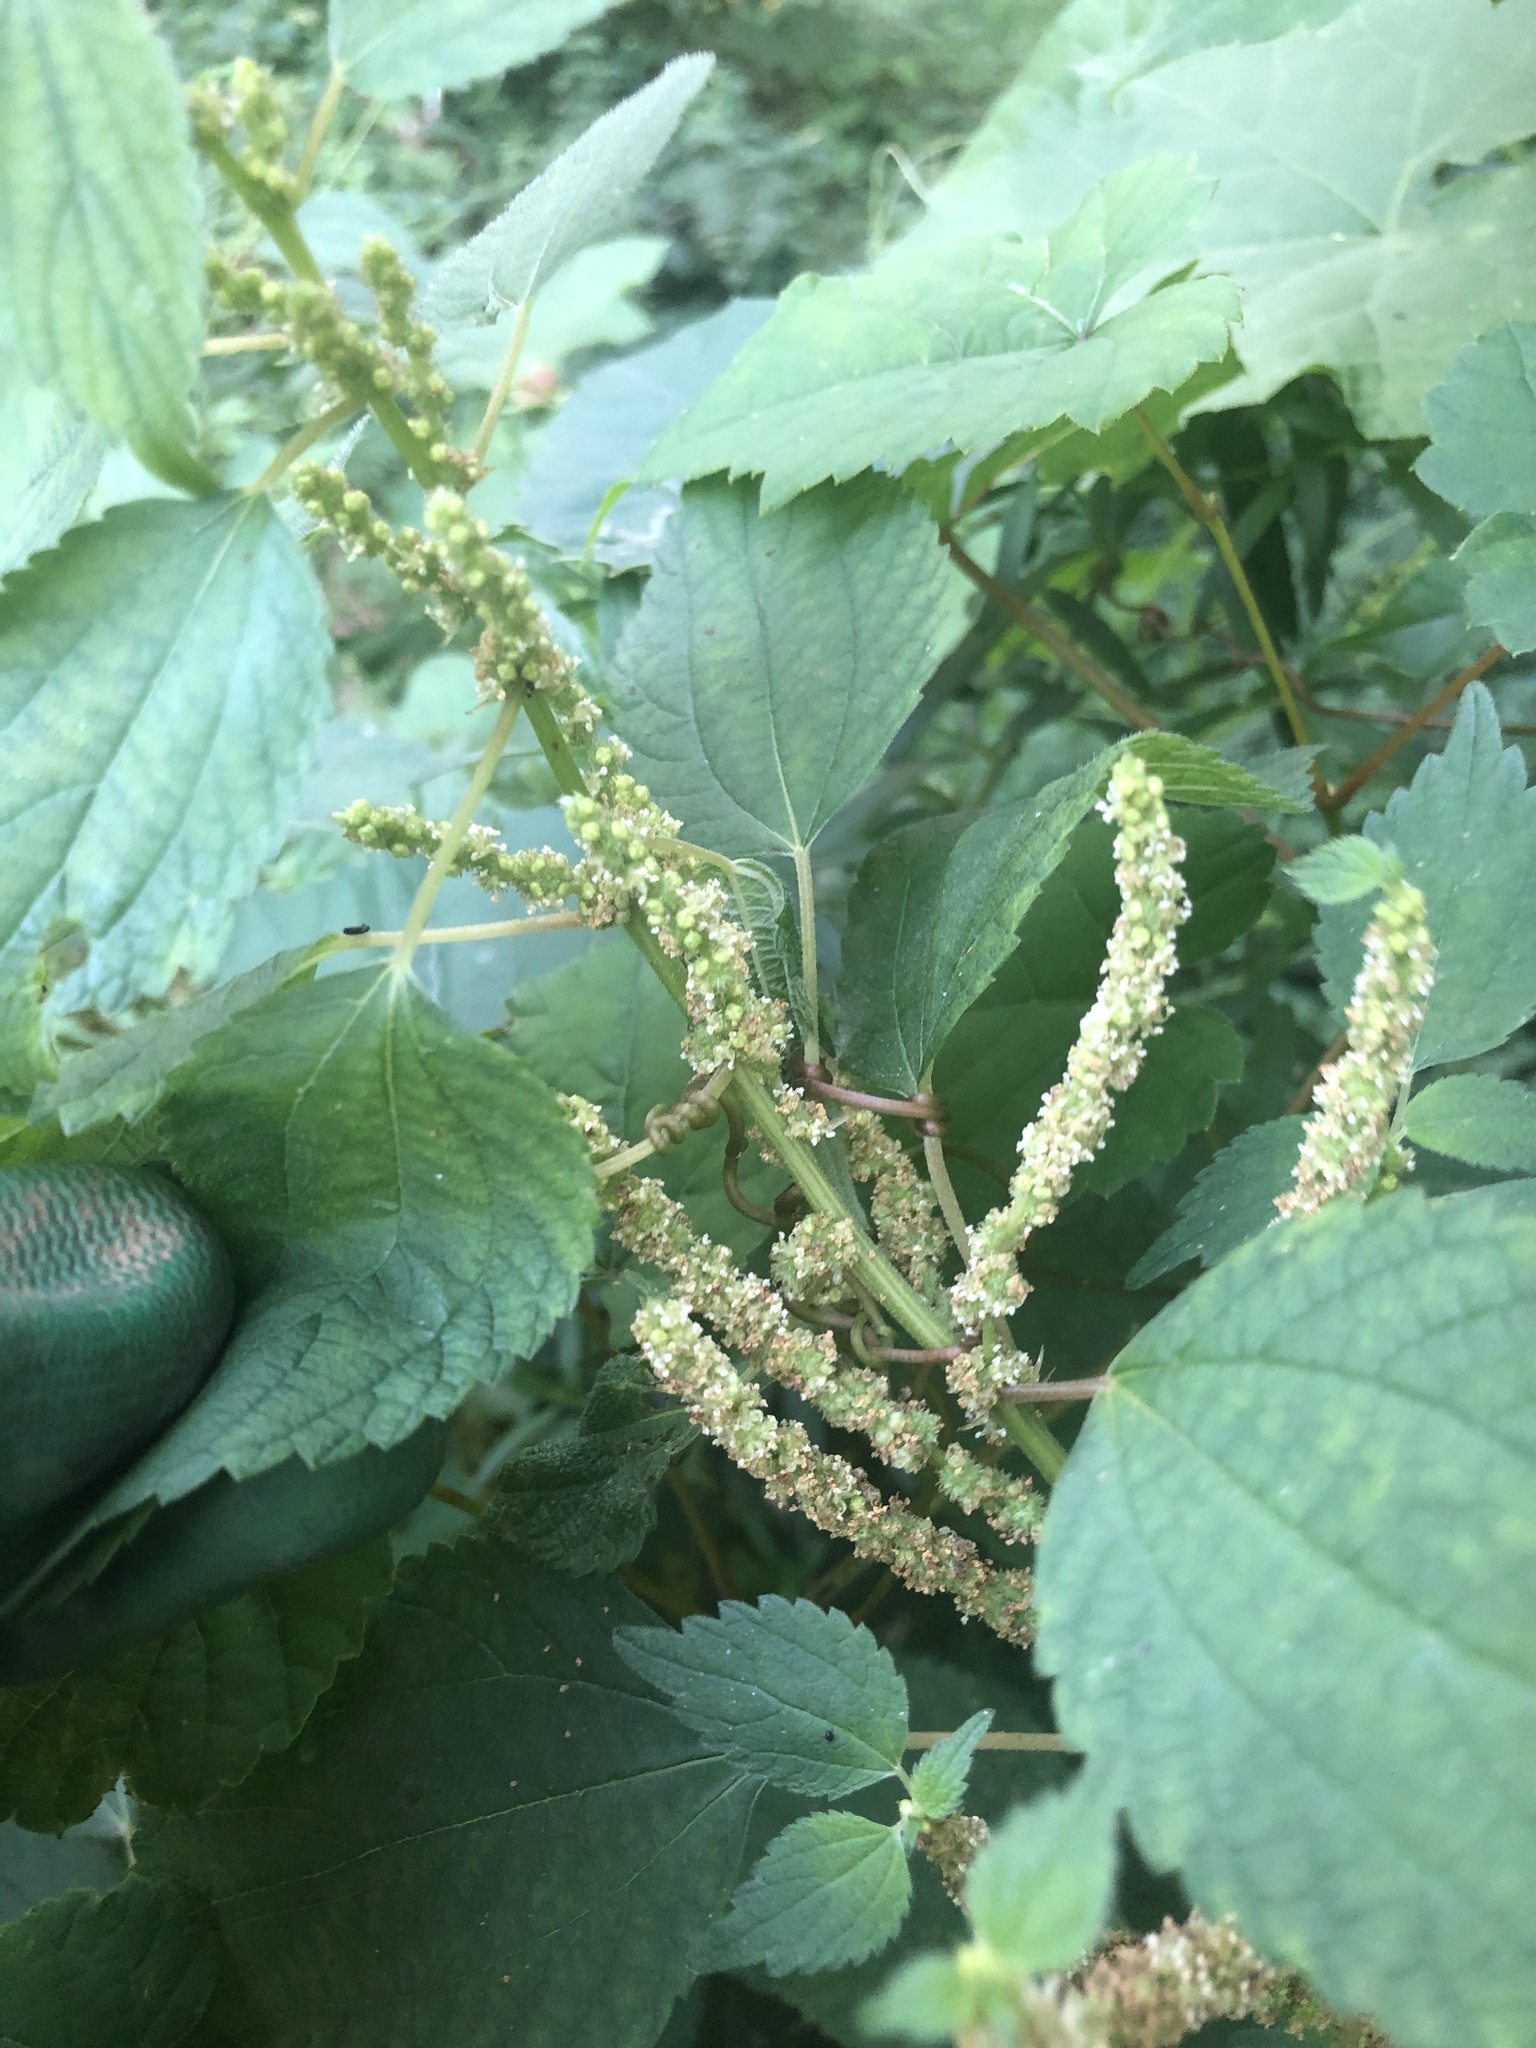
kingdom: Plantae
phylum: Tracheophyta
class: Magnoliopsida
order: Rosales
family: Urticaceae
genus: Boehmeria
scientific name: Boehmeria cylindrica
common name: Bog-hemp
